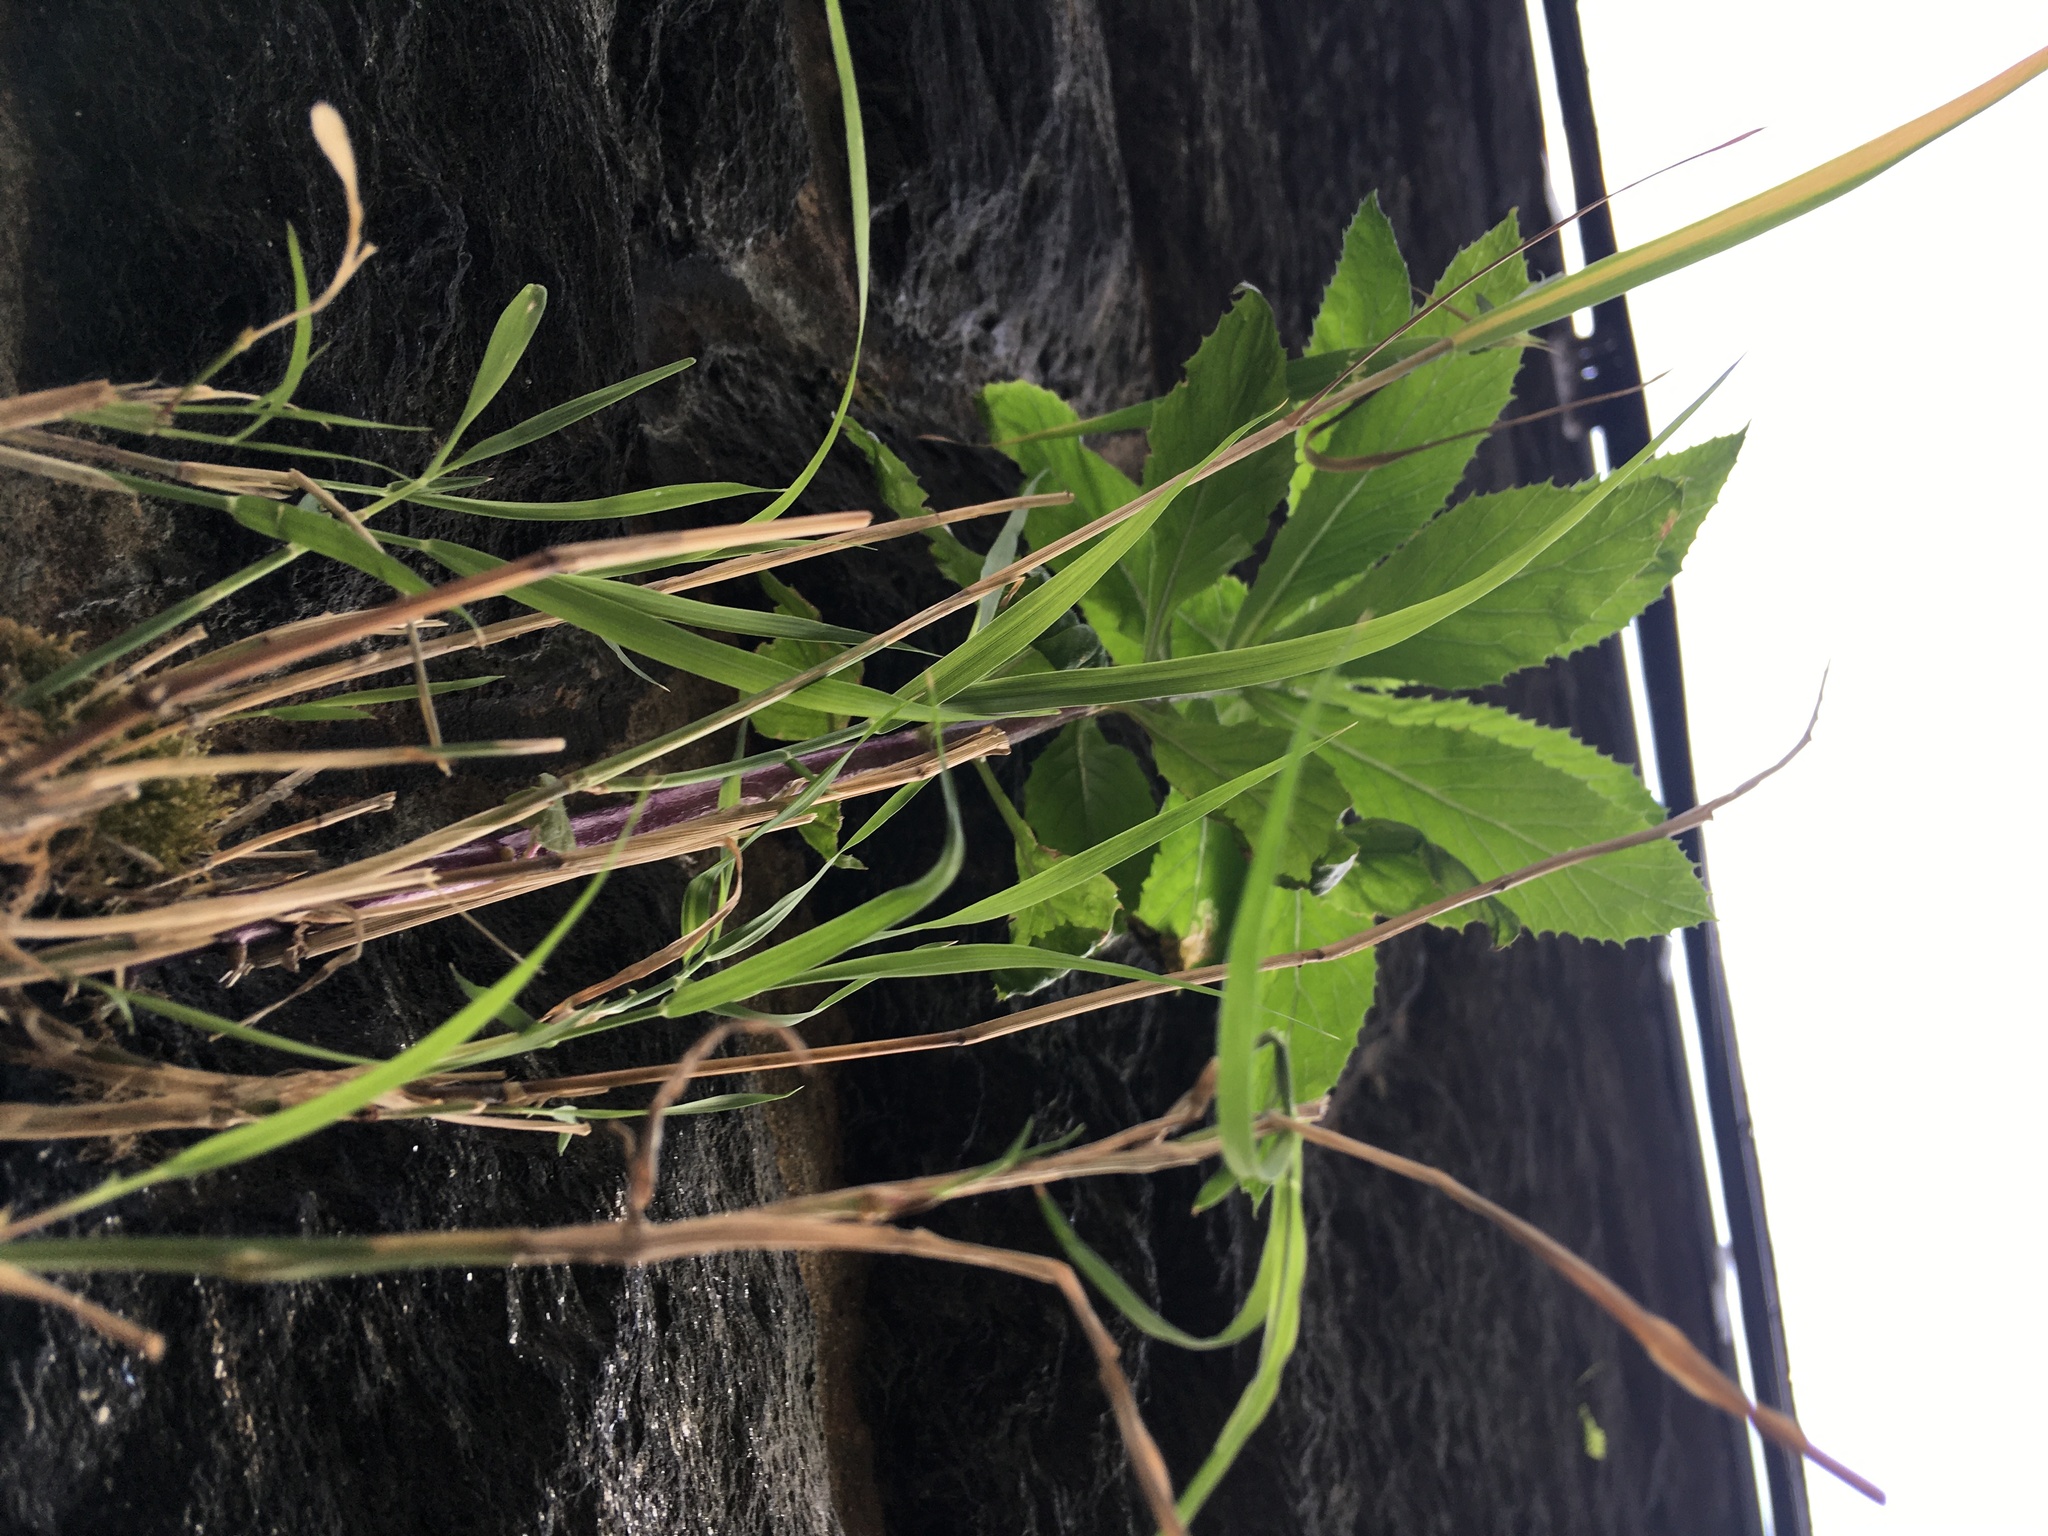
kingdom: Plantae
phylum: Tracheophyta
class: Liliopsida
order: Poales
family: Poaceae
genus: Phragmites
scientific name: Phragmites australis
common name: Common reed
